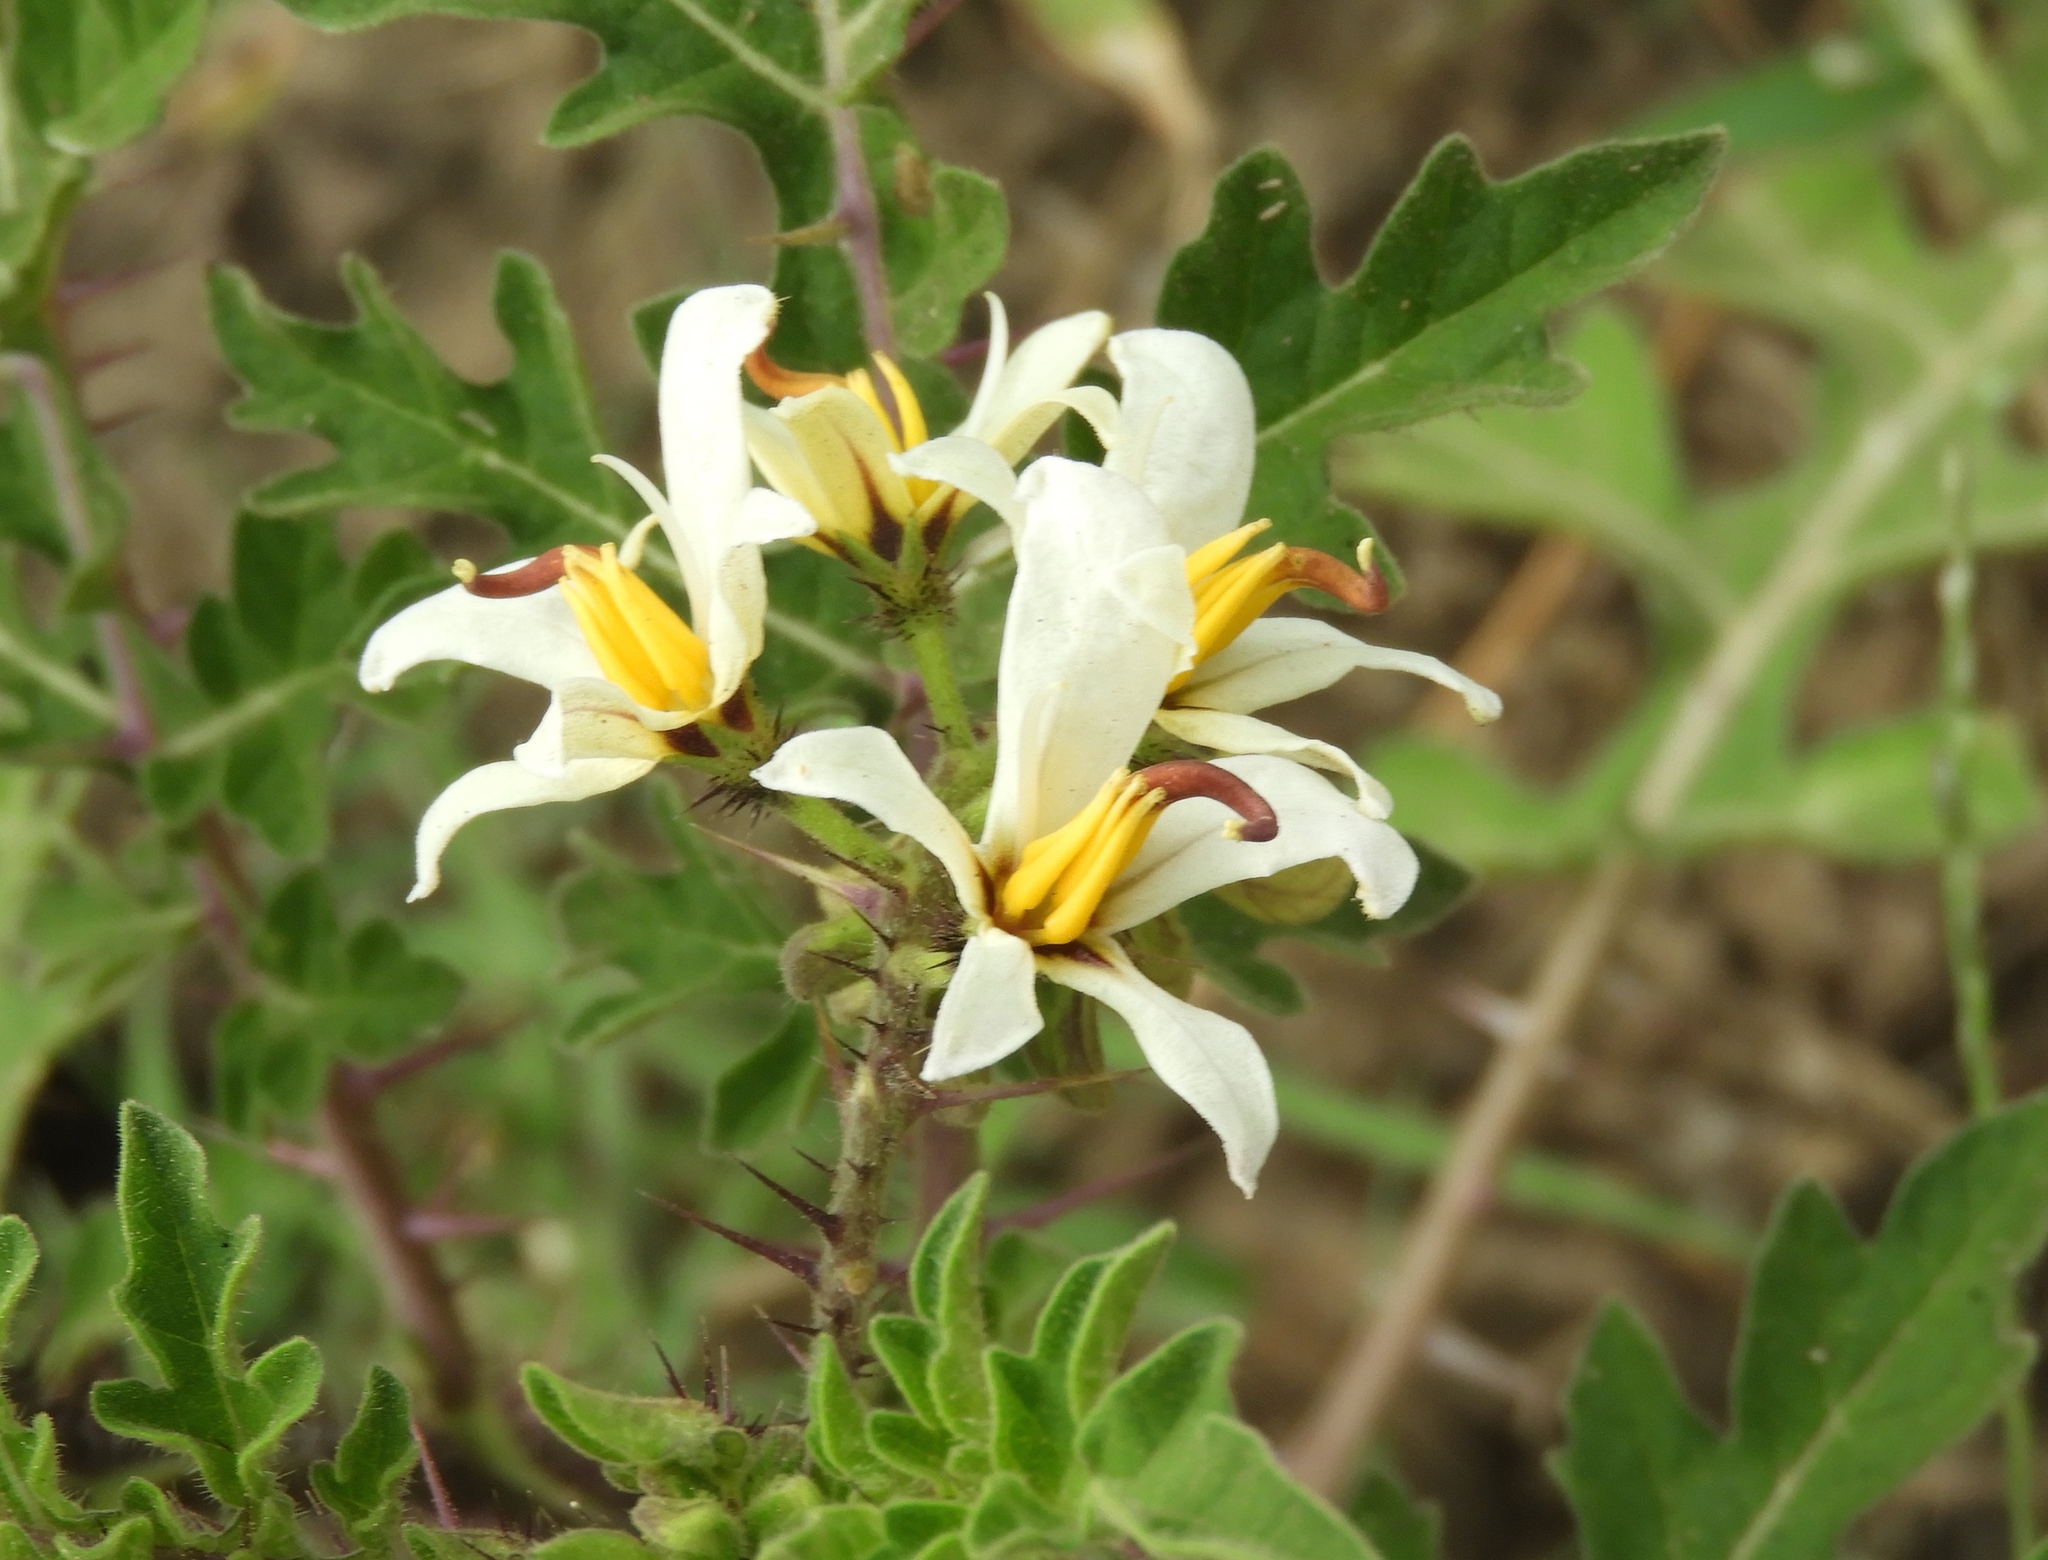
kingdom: Plantae
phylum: Tracheophyta
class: Magnoliopsida
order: Solanales
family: Solanaceae
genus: Solanum
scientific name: Solanum grayi
